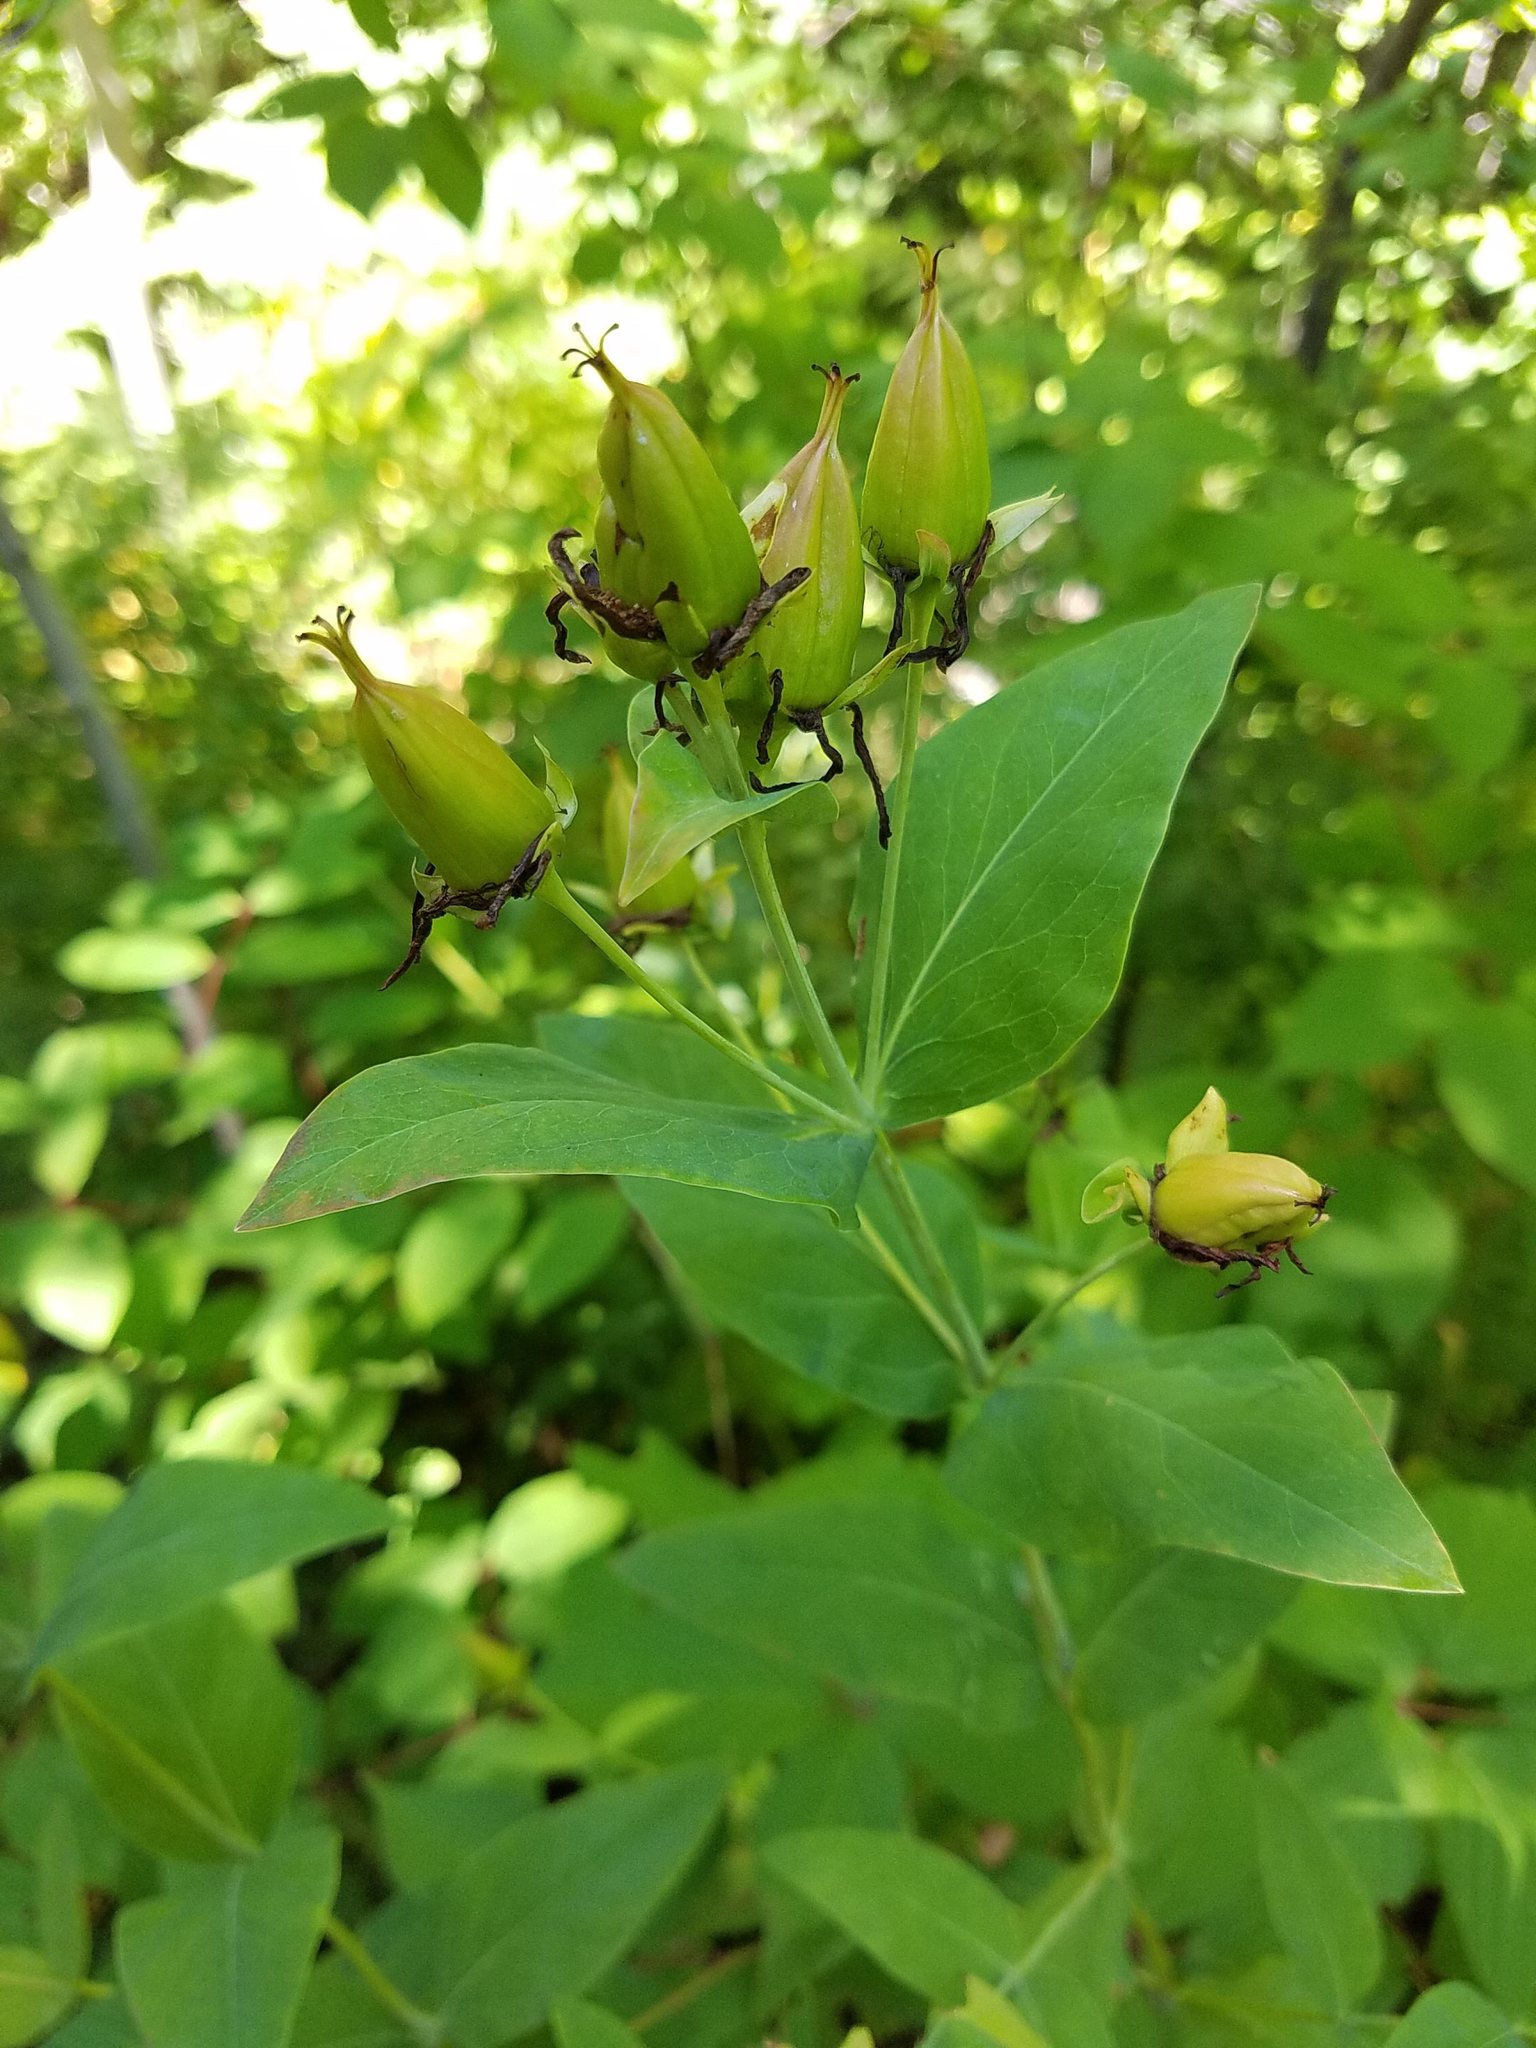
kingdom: Plantae
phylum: Tracheophyta
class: Magnoliopsida
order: Malpighiales
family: Hypericaceae
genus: Hypericum
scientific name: Hypericum ascyron
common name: Giant st. john's-wort
